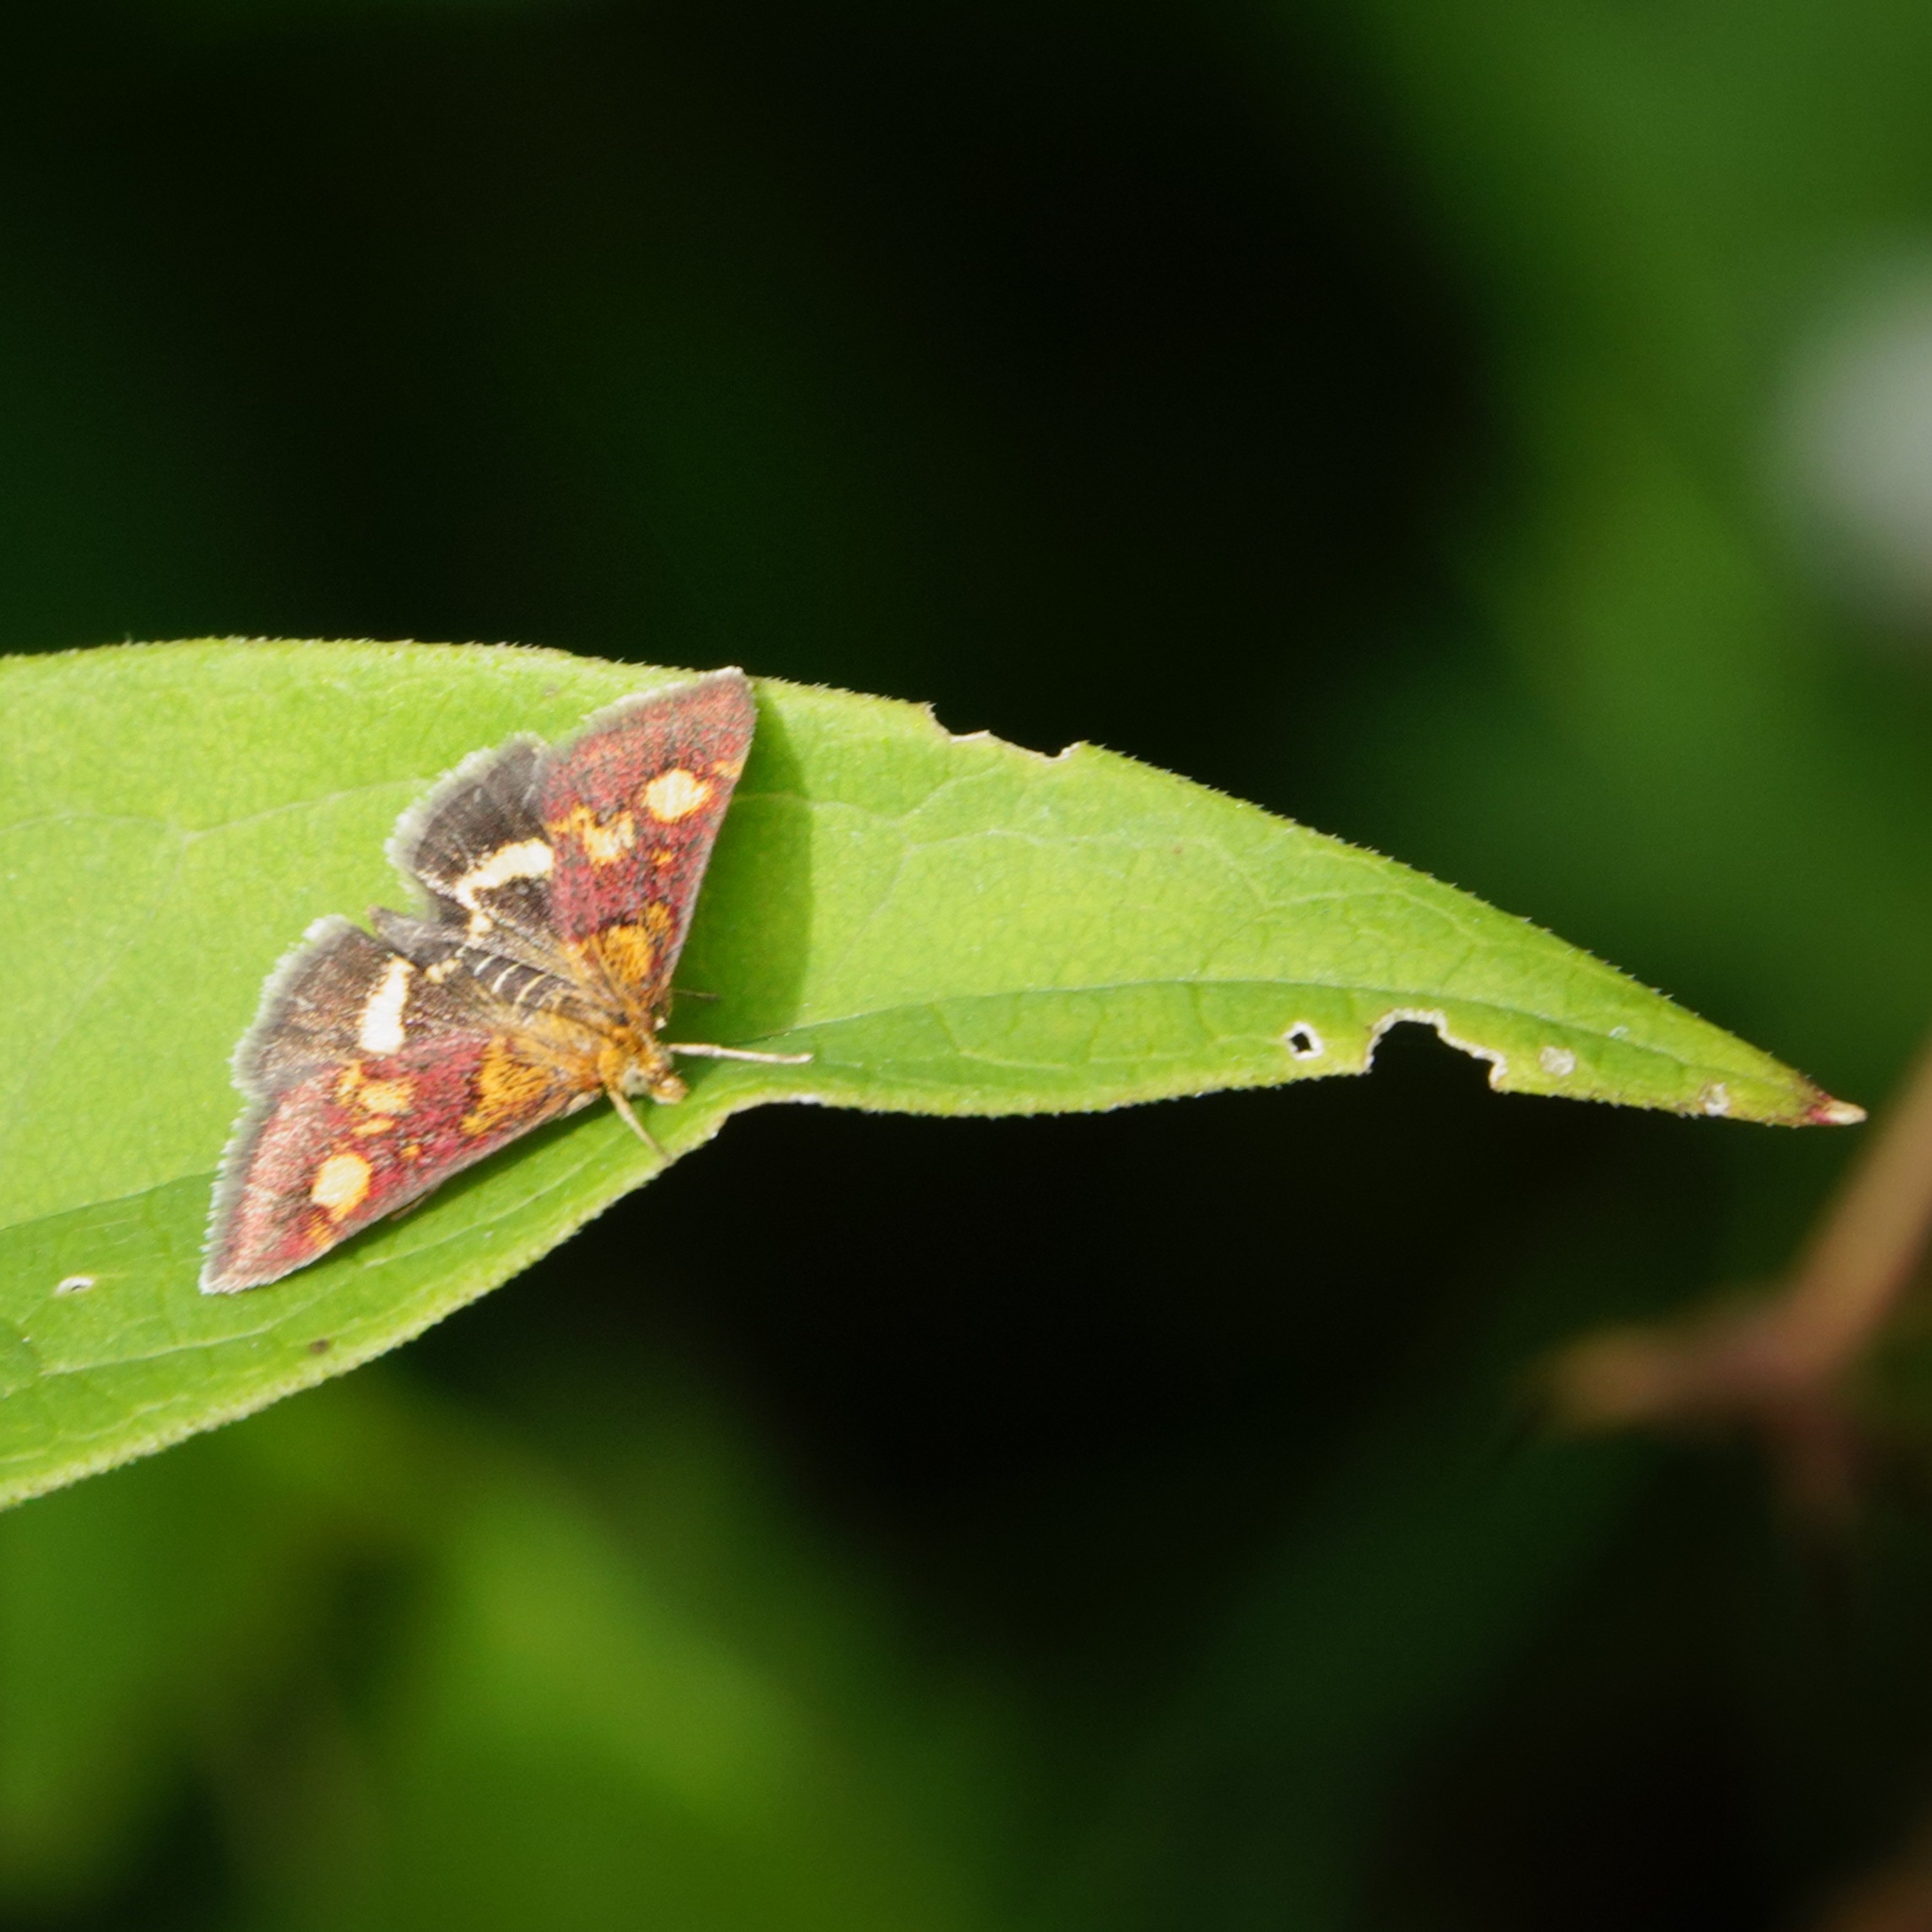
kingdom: Animalia
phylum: Arthropoda
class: Insecta
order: Lepidoptera
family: Crambidae
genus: Pyrausta
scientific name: Pyrausta aurata
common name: Small purple & gold
